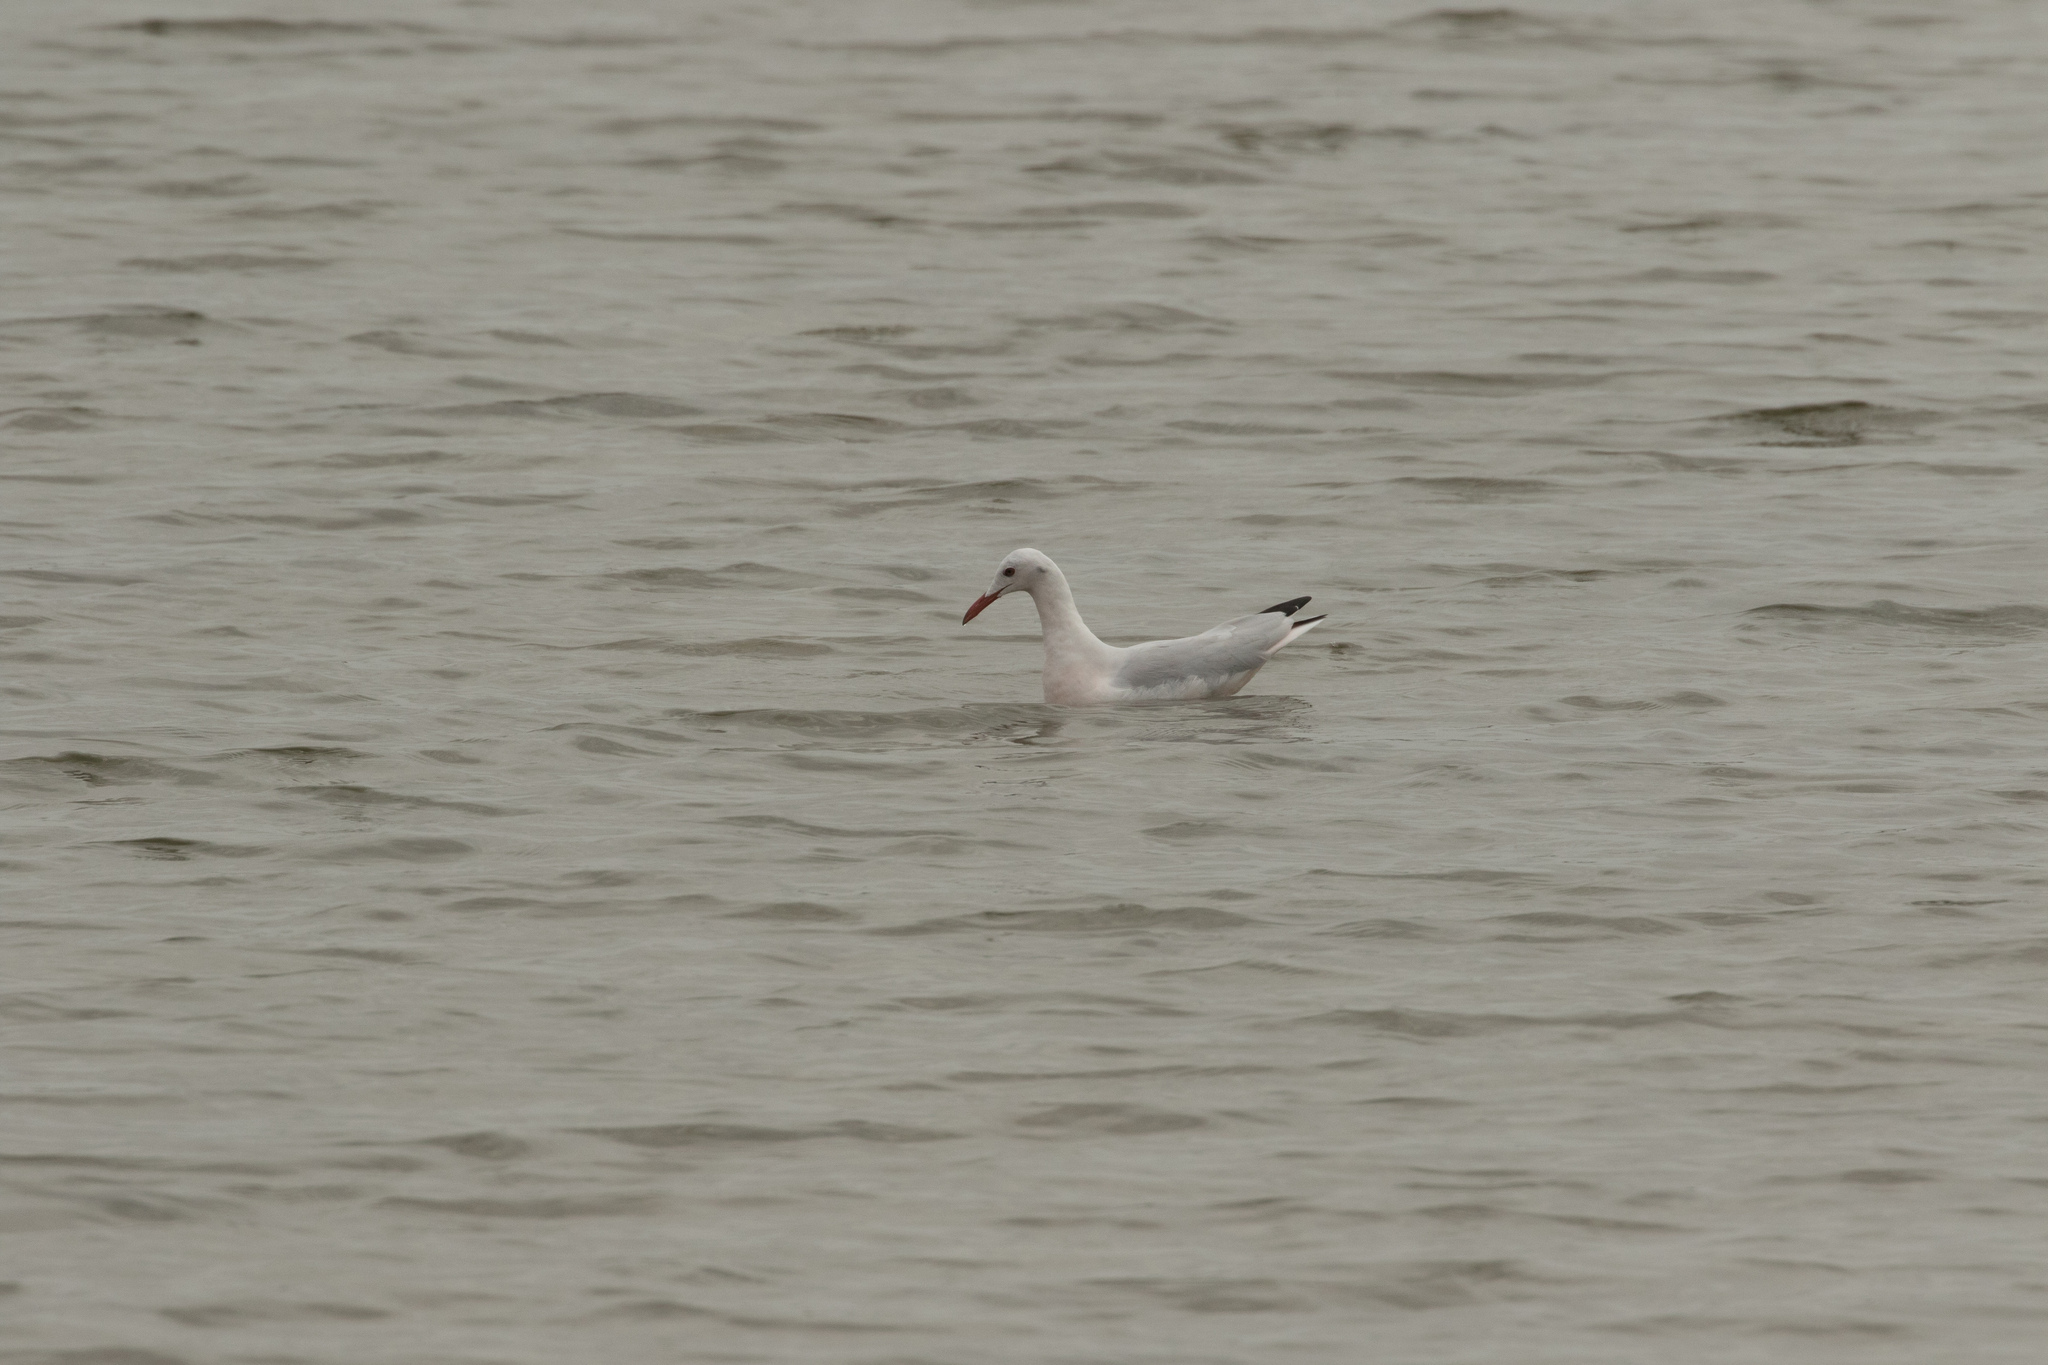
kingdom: Animalia
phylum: Chordata
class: Aves
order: Charadriiformes
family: Laridae
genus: Chroicocephalus
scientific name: Chroicocephalus genei
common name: Slender-billed gull
